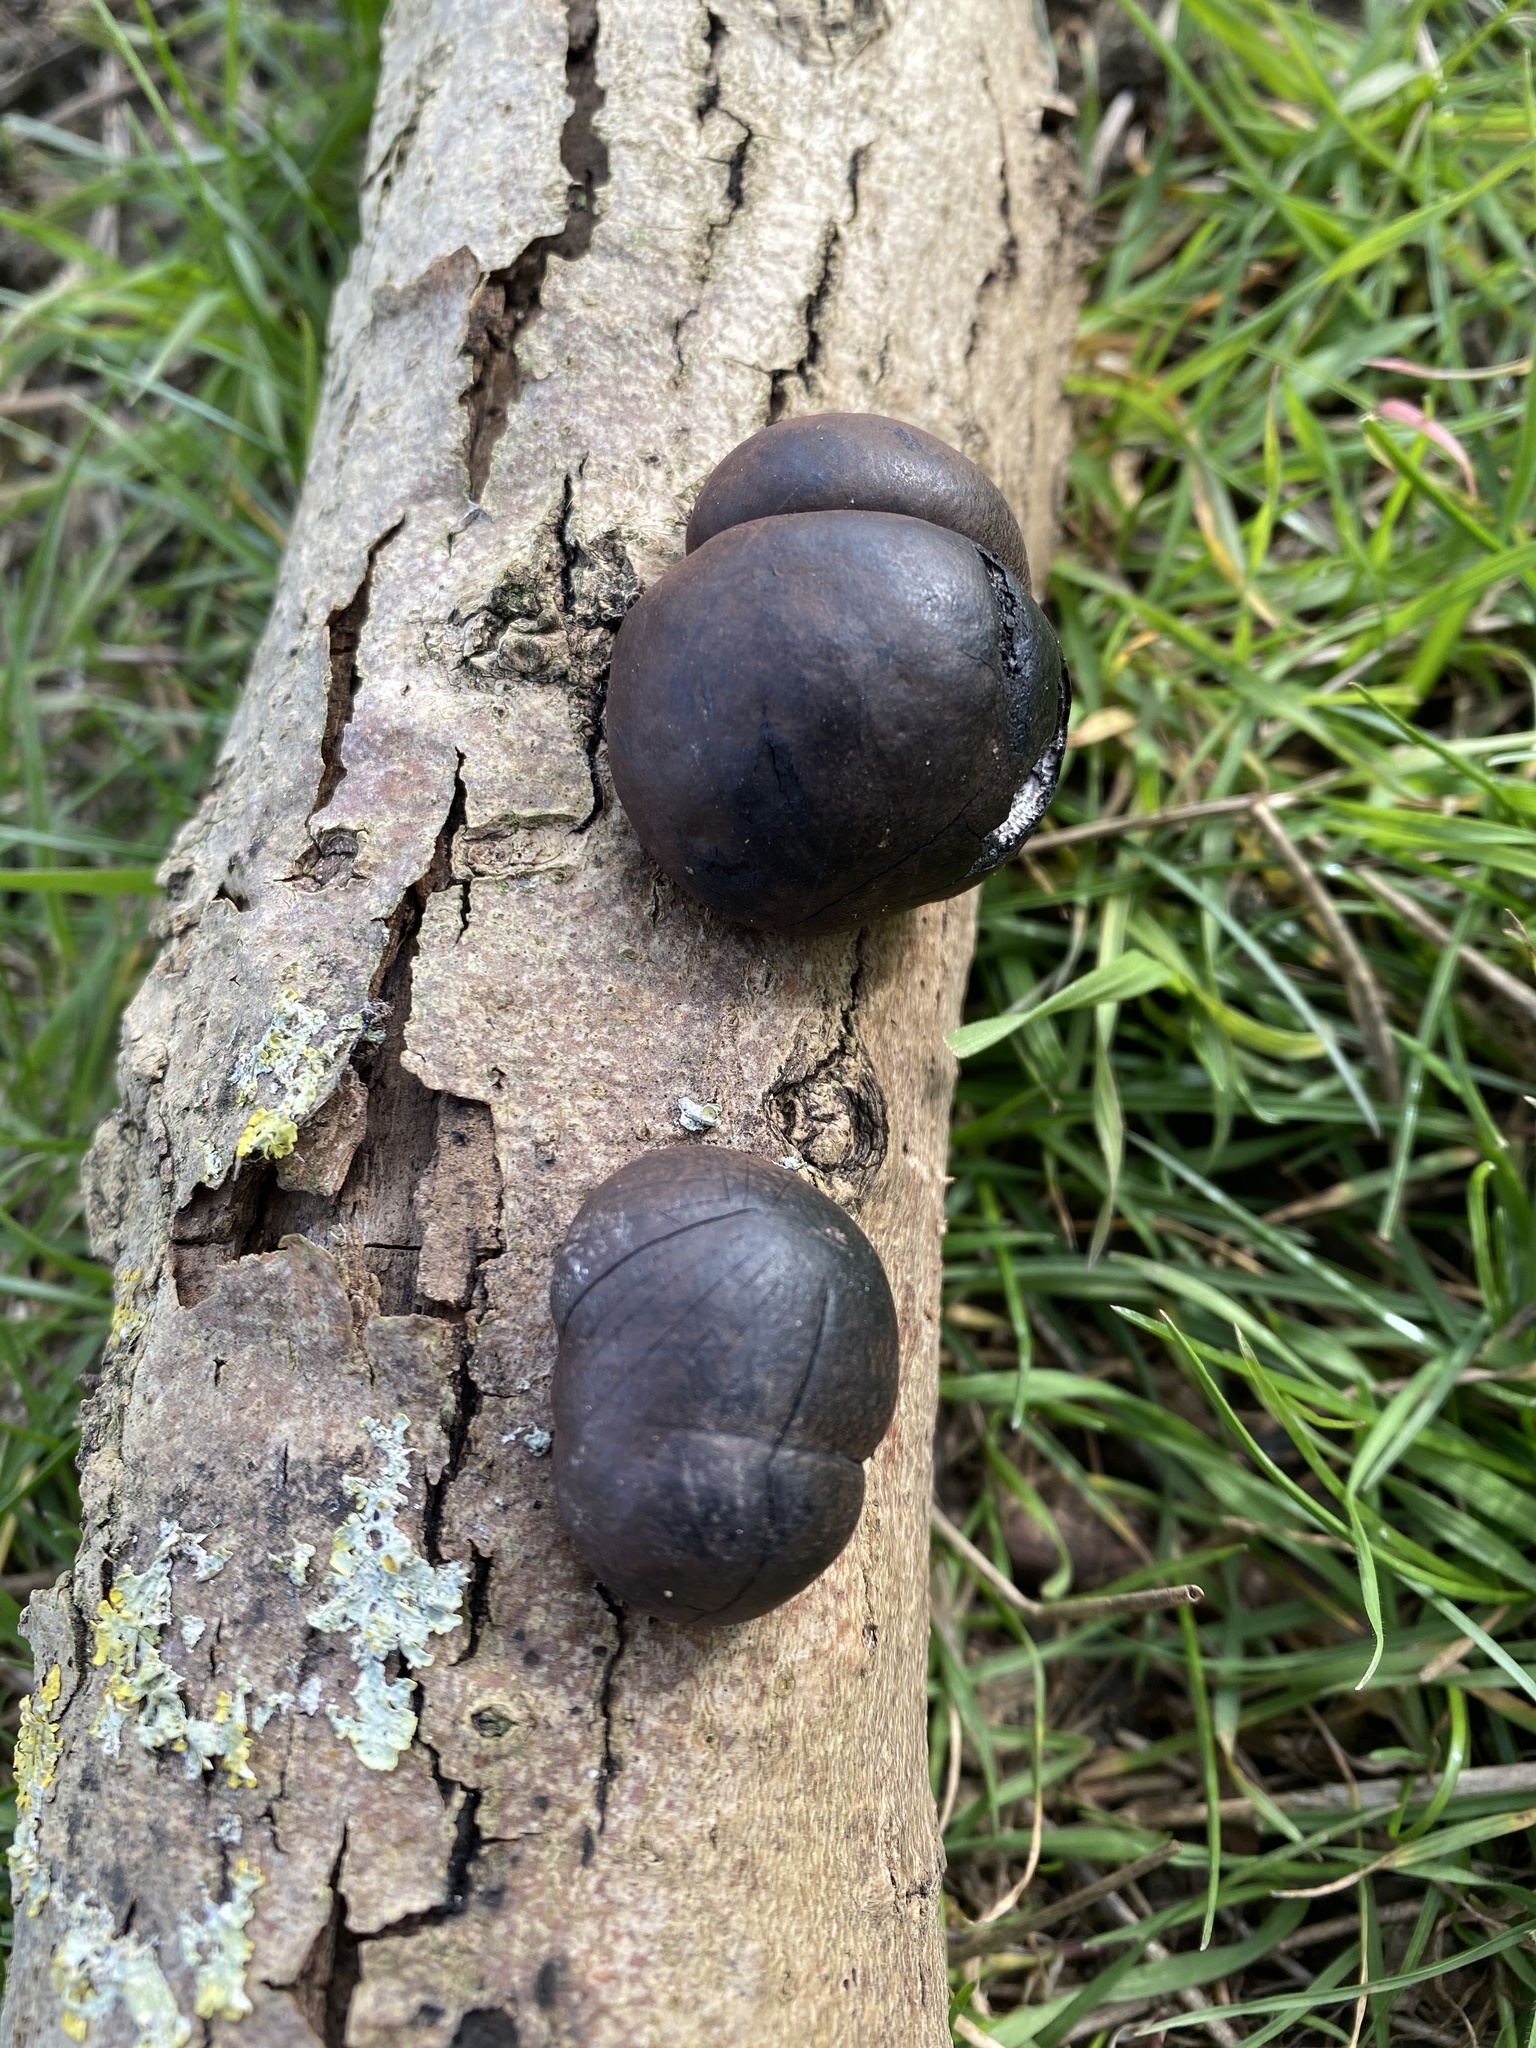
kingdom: Fungi
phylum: Ascomycota
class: Sordariomycetes
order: Xylariales
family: Hypoxylaceae
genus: Daldinia
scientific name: Daldinia concentrica
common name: Cramp balls
